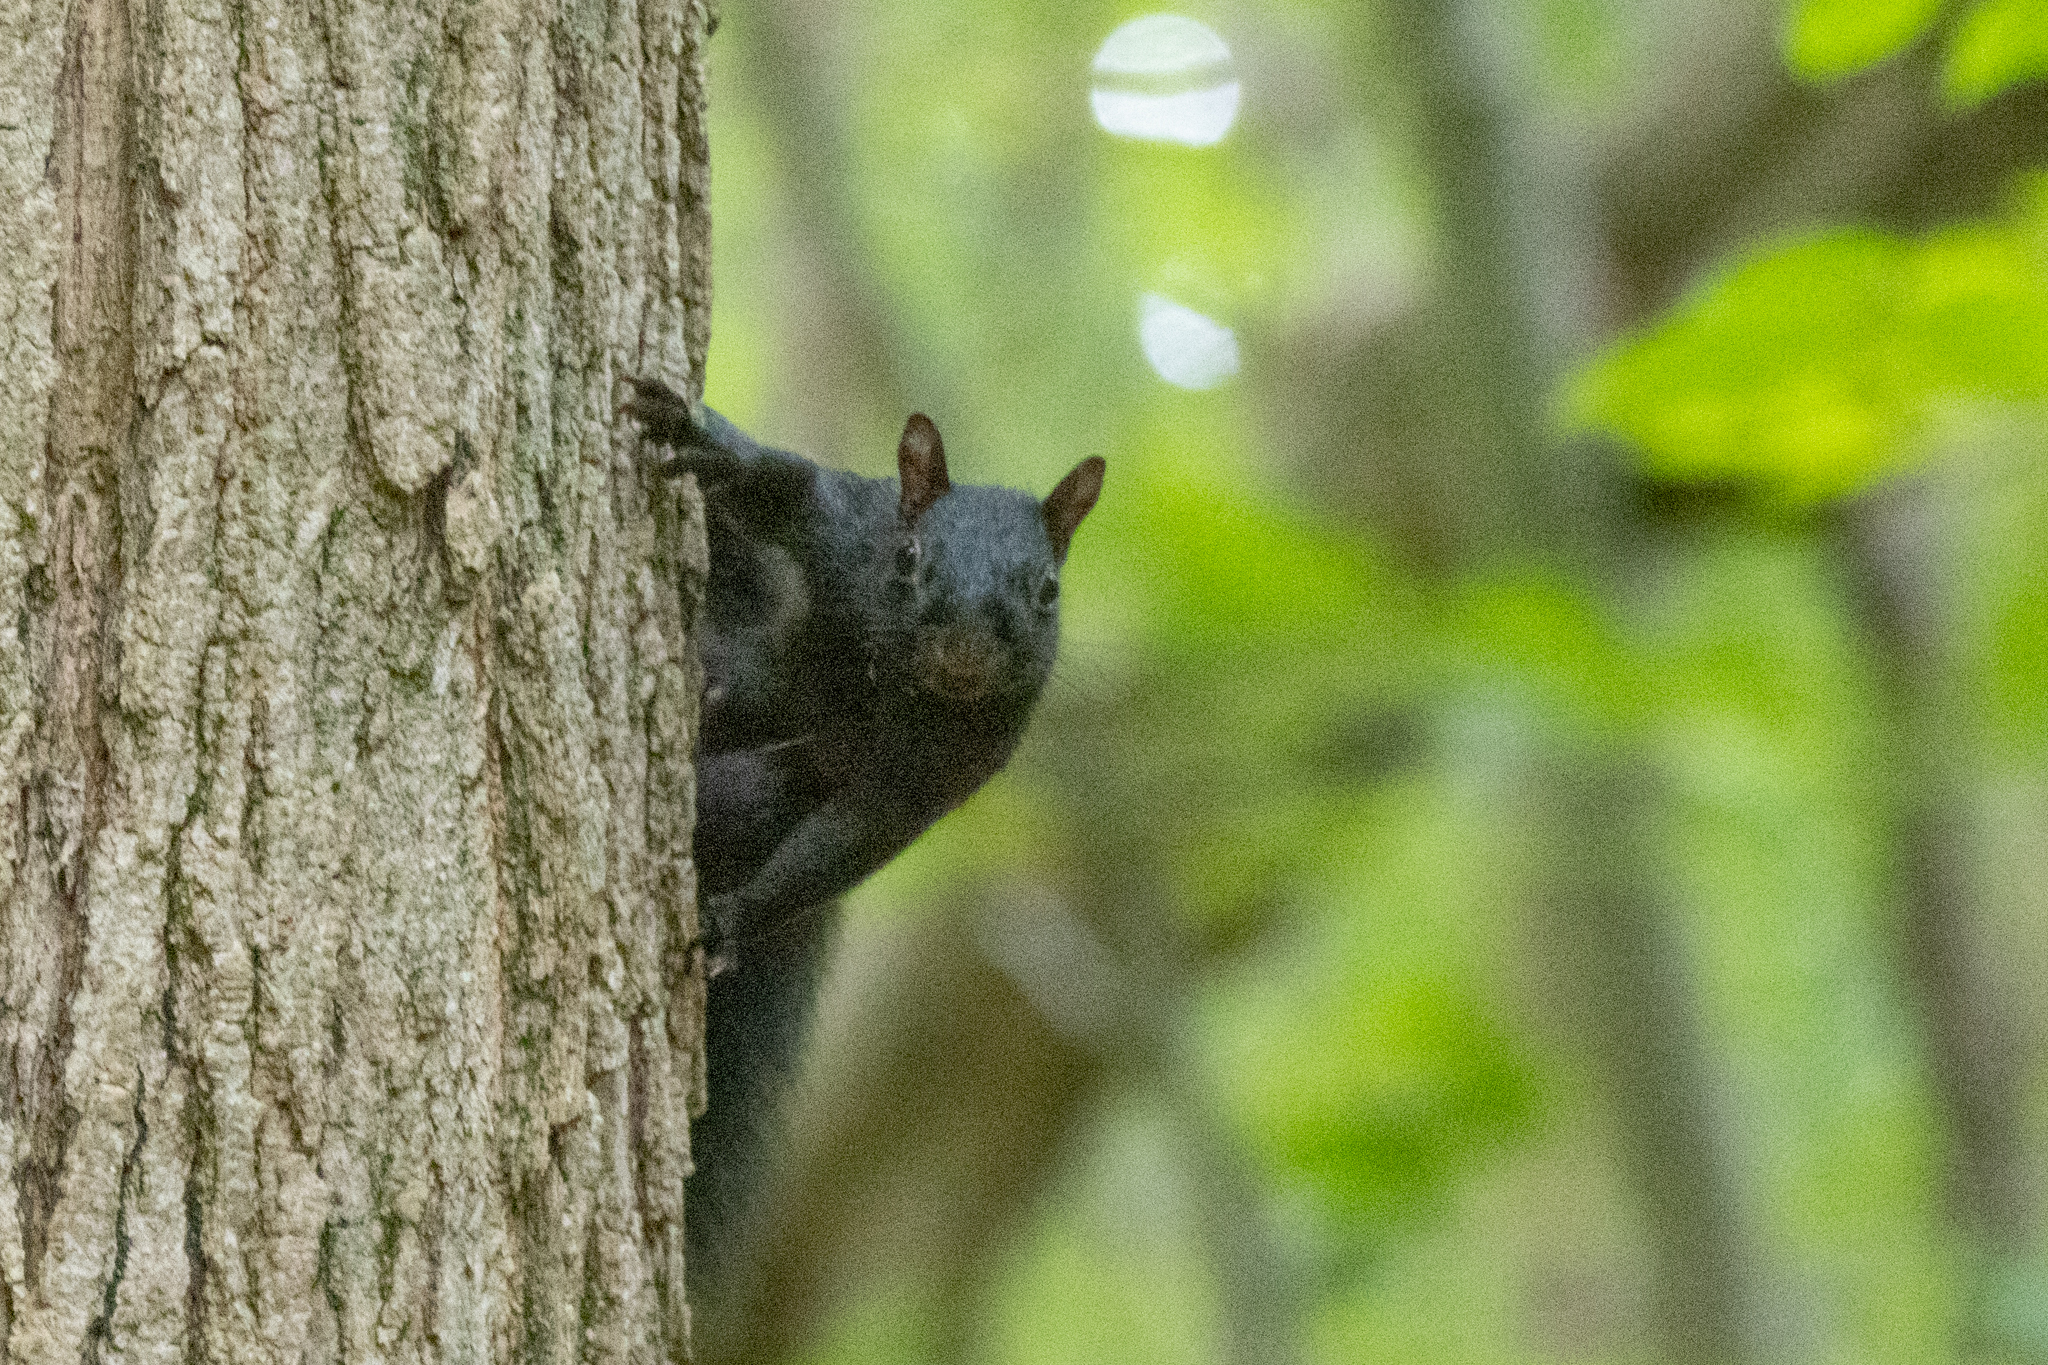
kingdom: Animalia
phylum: Chordata
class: Mammalia
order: Rodentia
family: Sciuridae
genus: Sciurus
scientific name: Sciurus carolinensis
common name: Eastern gray squirrel
